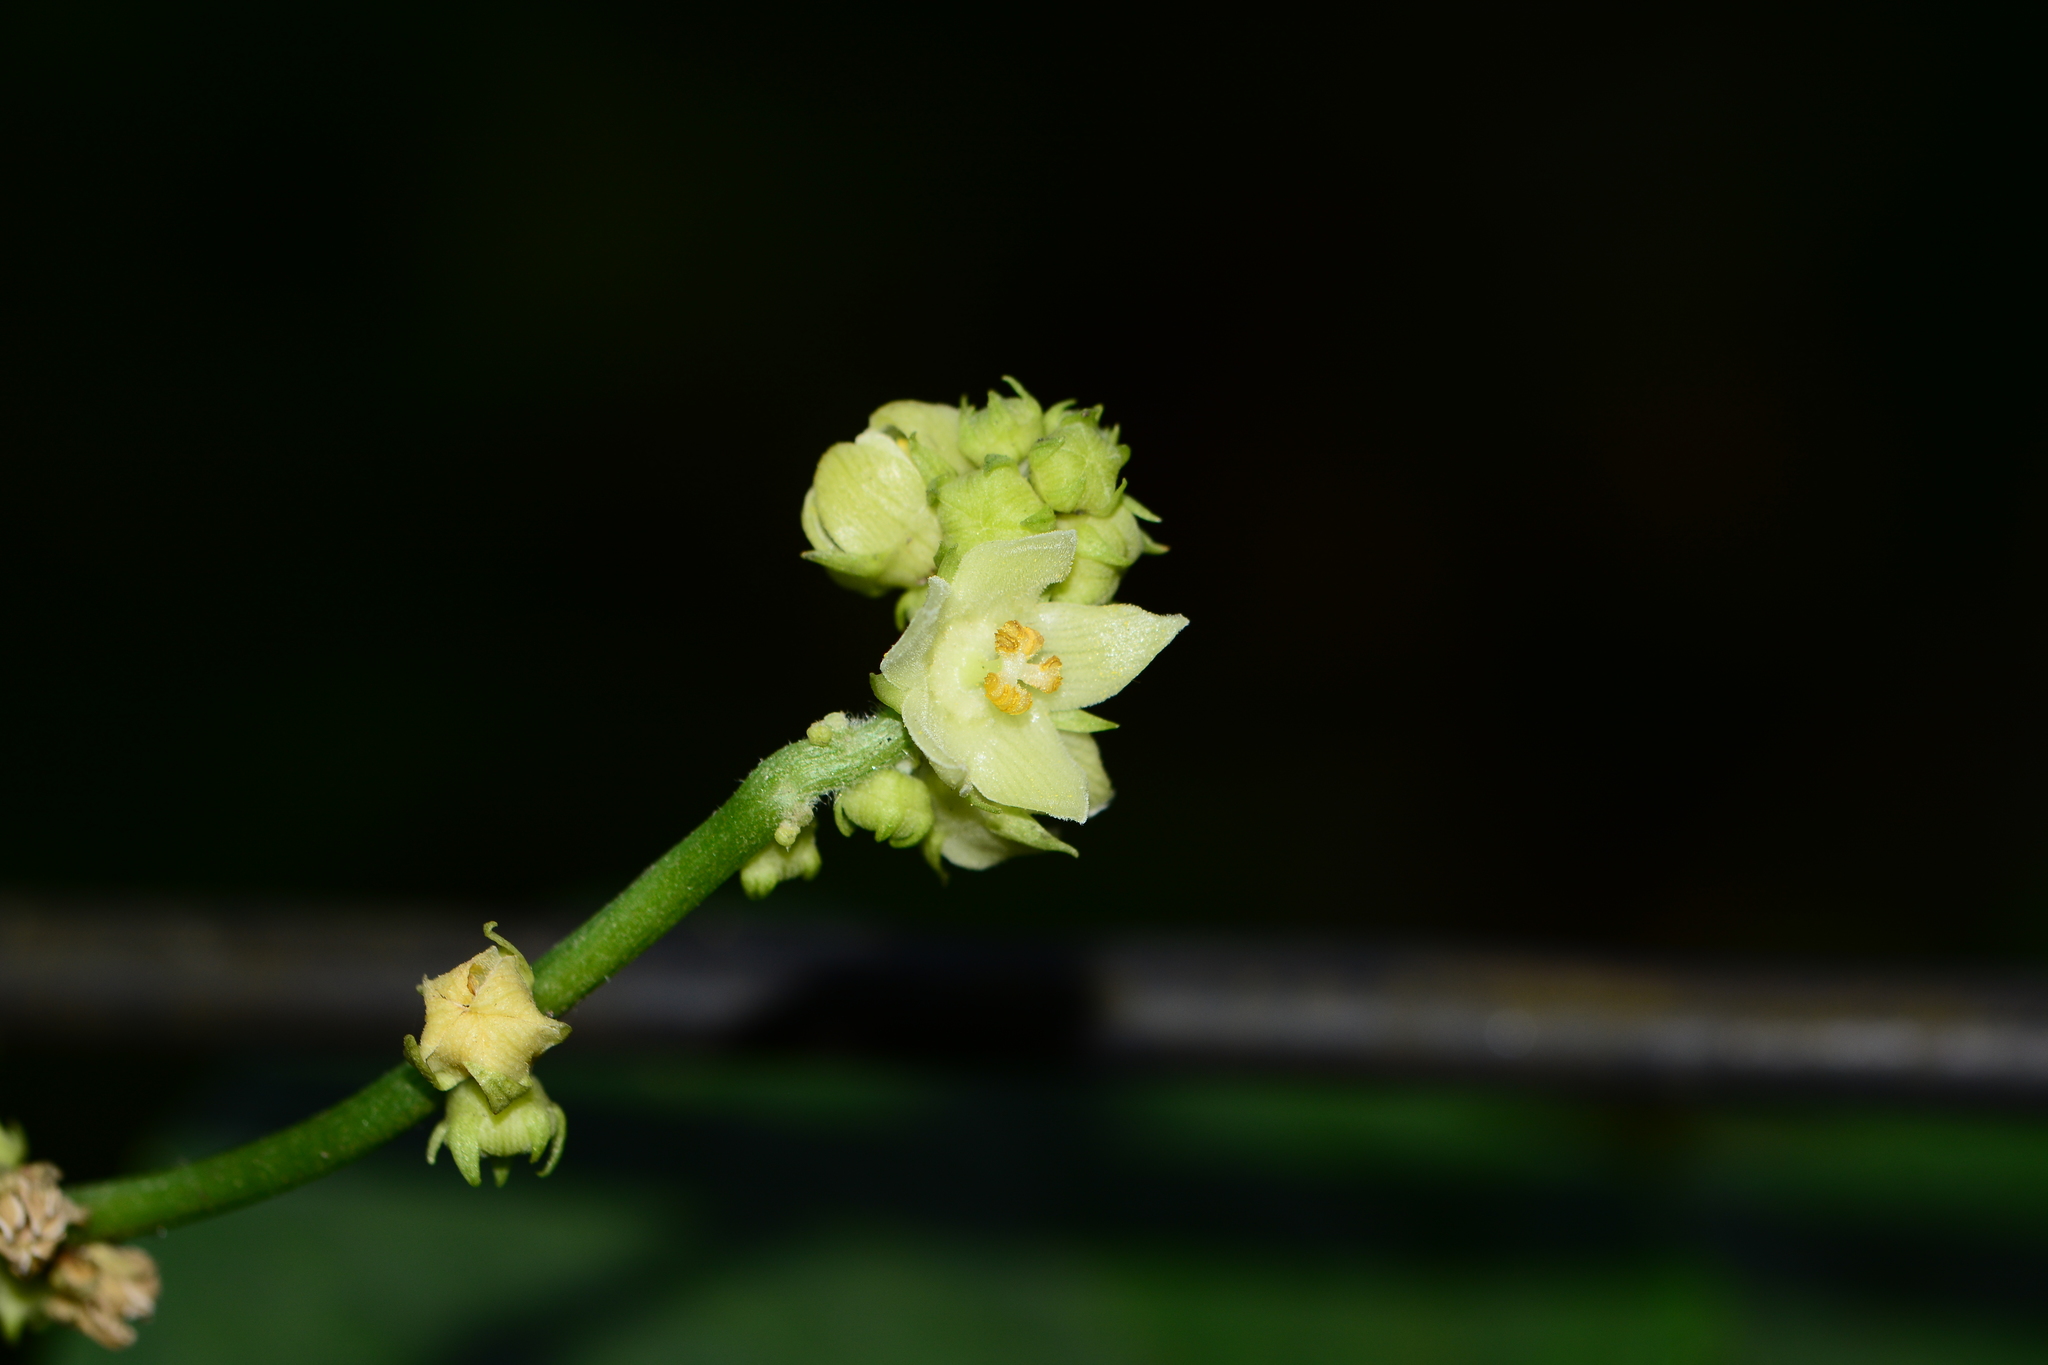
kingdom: Plantae
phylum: Tracheophyta
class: Magnoliopsida
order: Cucurbitales
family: Cucurbitaceae
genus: Sechium
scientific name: Sechium edule
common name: Chayote
